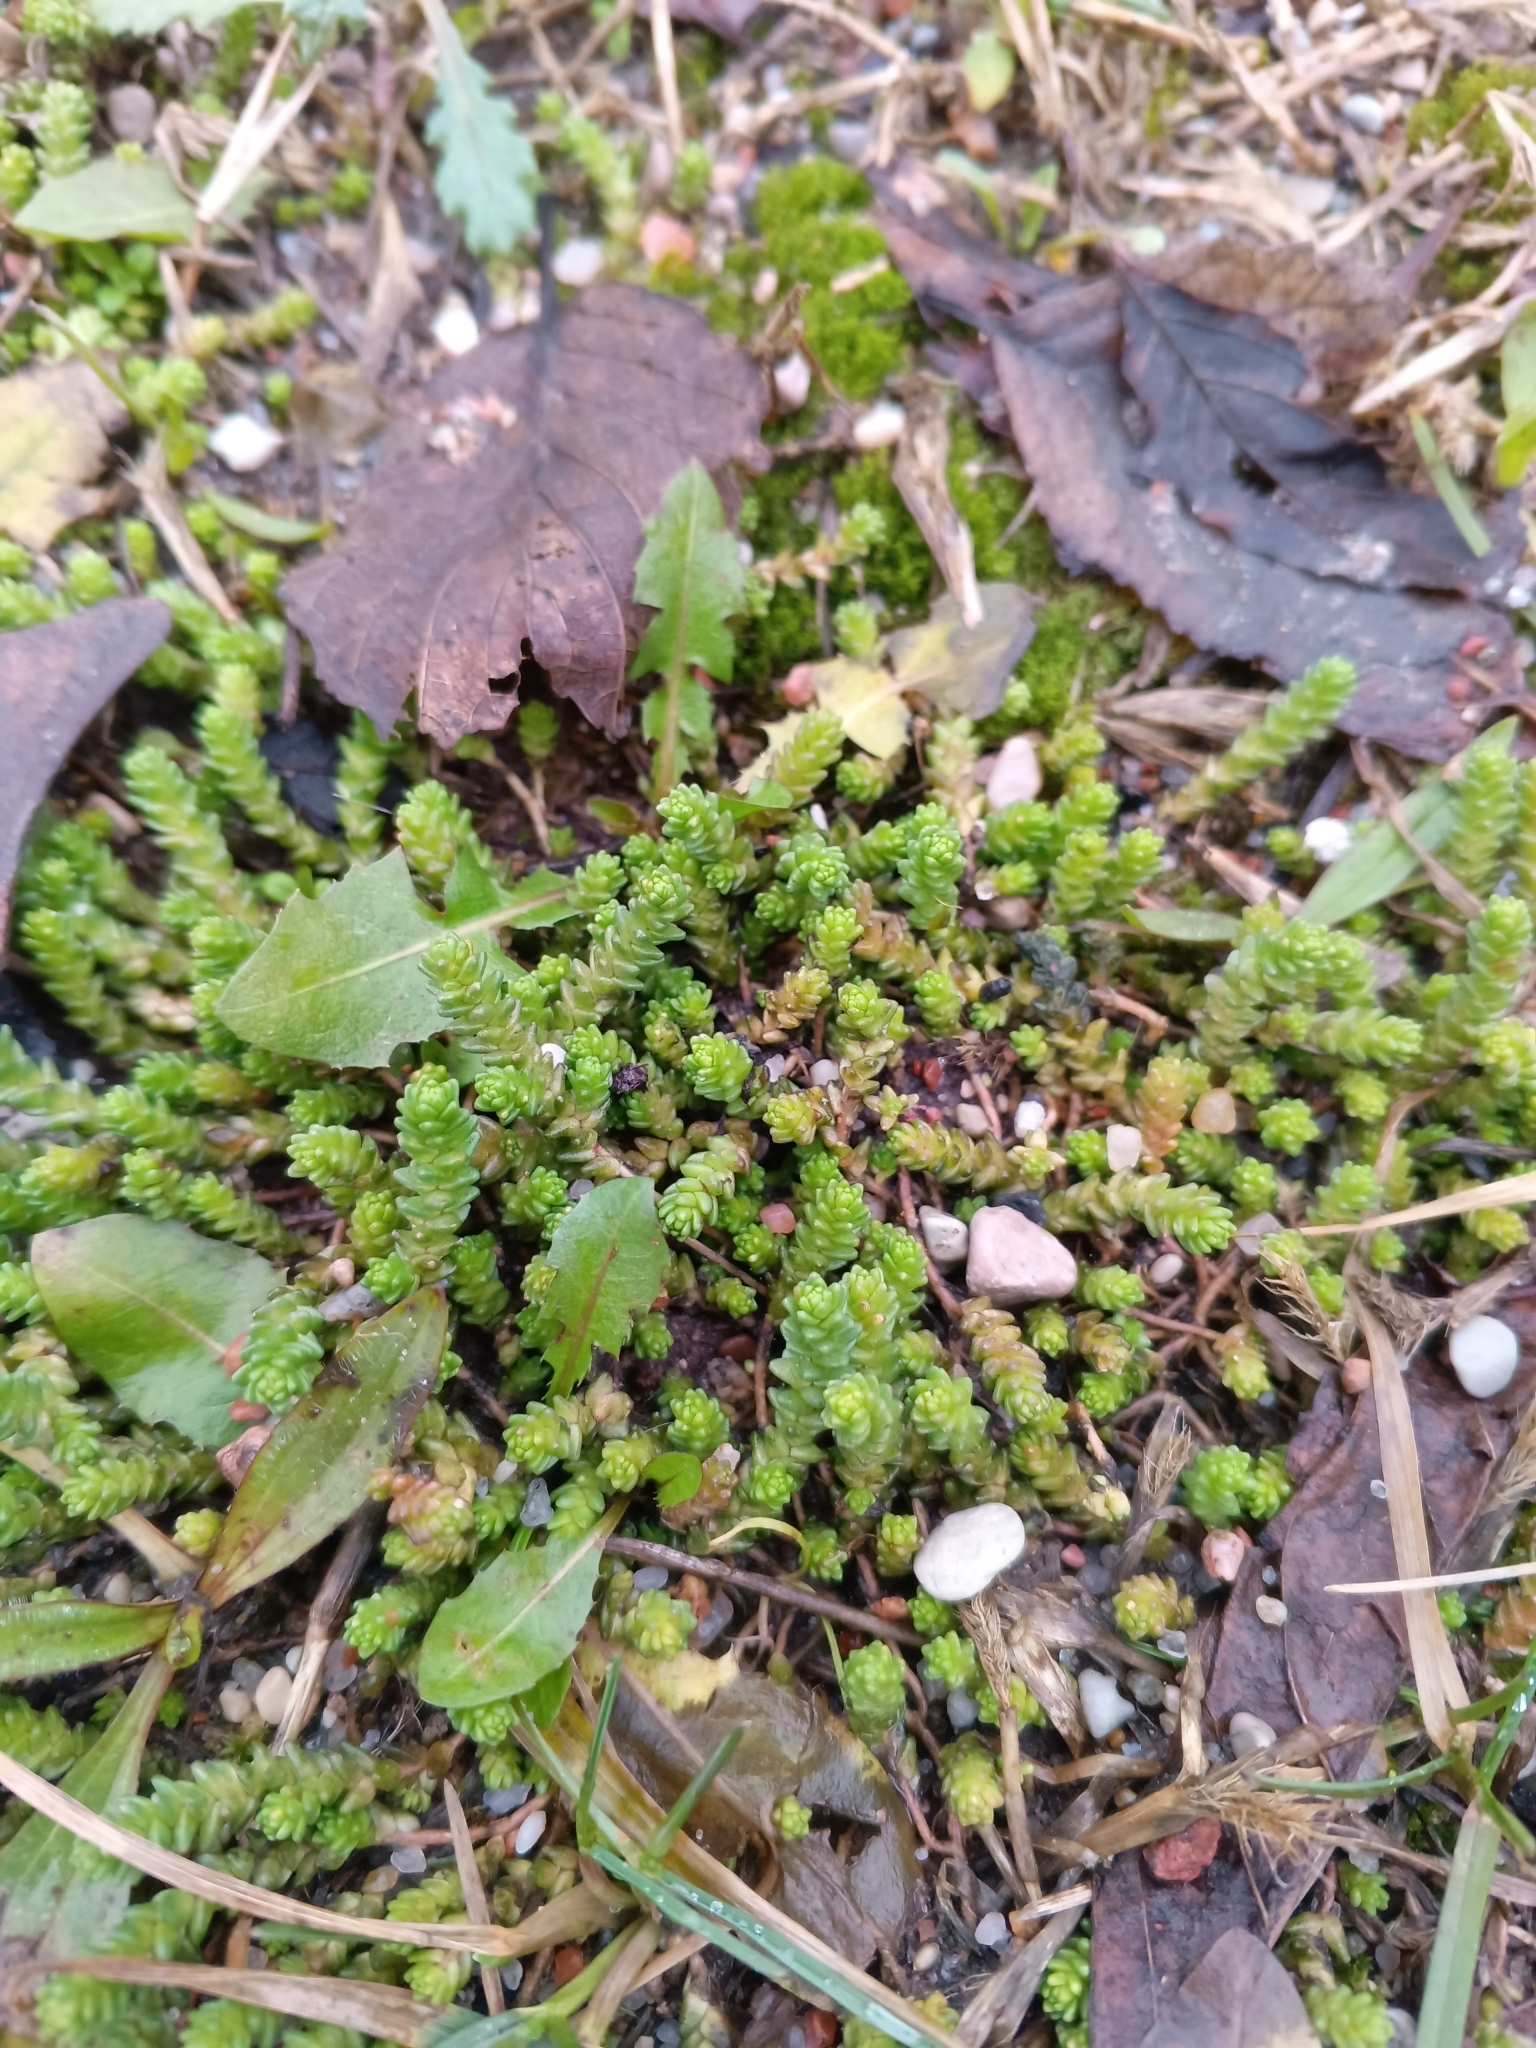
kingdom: Plantae
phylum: Tracheophyta
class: Magnoliopsida
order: Saxifragales
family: Crassulaceae
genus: Sedum
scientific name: Sedum acre
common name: Biting stonecrop
